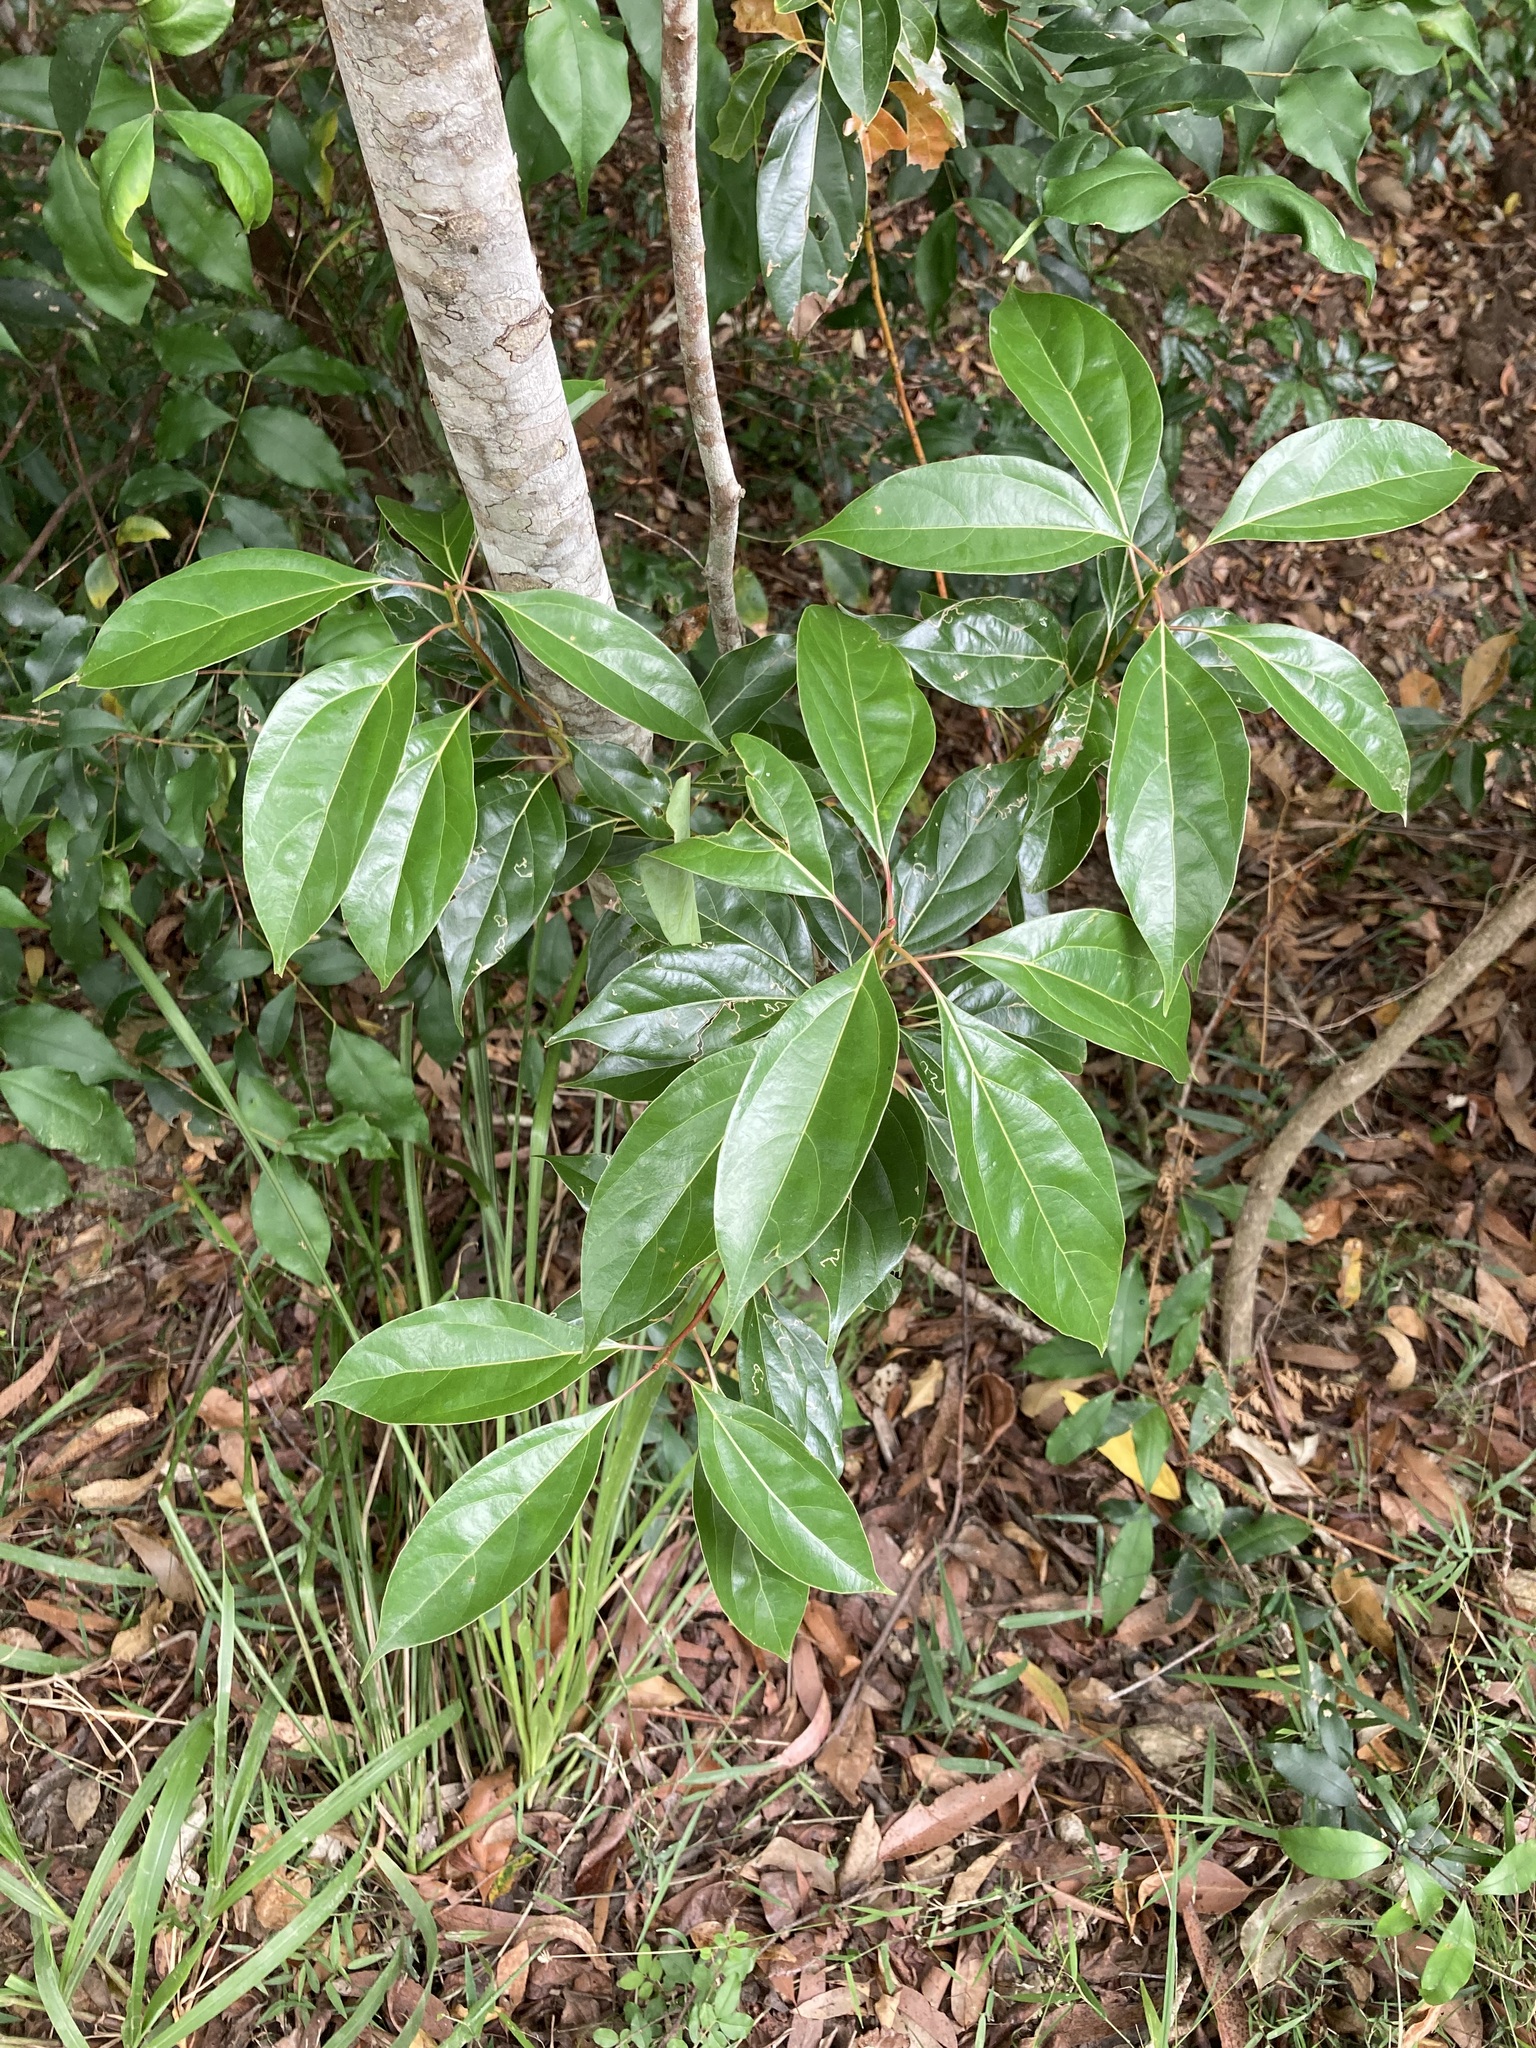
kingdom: Plantae
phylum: Tracheophyta
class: Magnoliopsida
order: Laurales
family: Lauraceae
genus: Cinnamomum
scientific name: Cinnamomum camphora
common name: Camphortree
